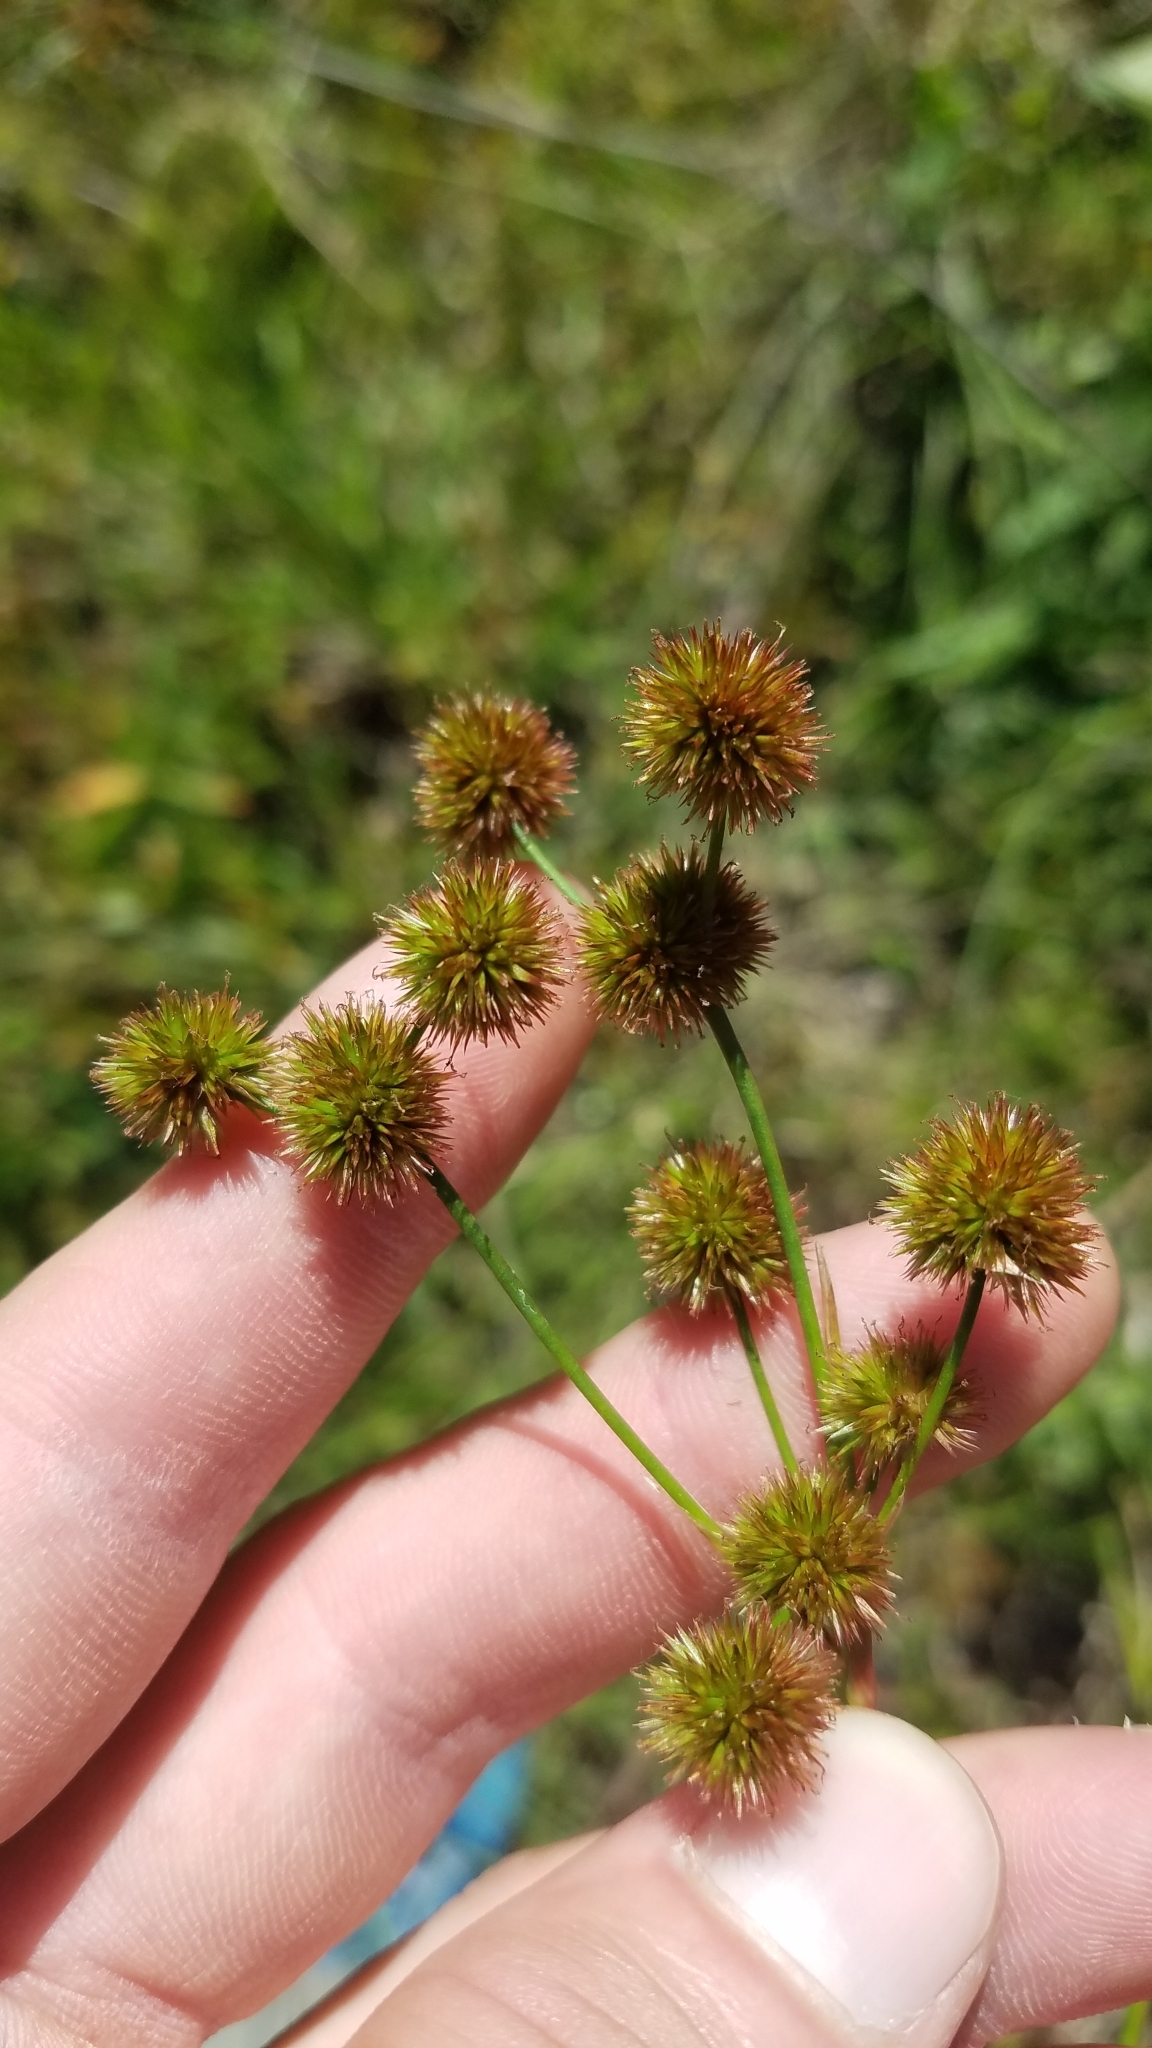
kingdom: Plantae
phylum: Tracheophyta
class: Liliopsida
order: Poales
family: Juncaceae
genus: Juncus
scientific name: Juncus megacephalus
